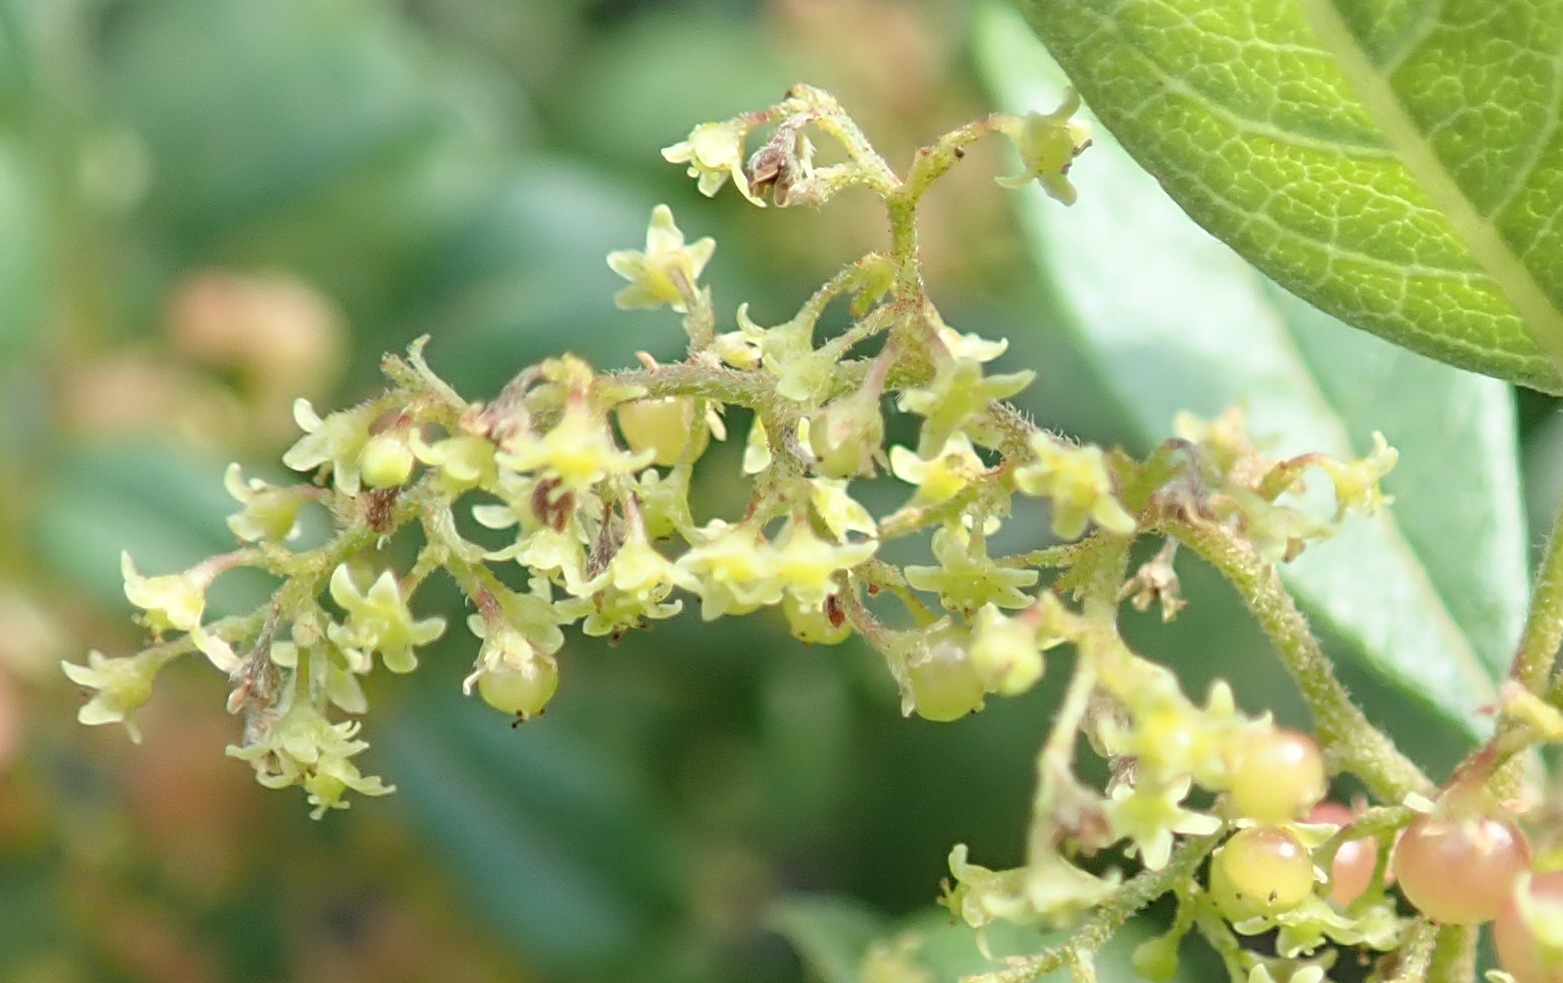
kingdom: Plantae
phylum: Tracheophyta
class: Magnoliopsida
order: Sapindales
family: Anacardiaceae
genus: Searsia
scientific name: Searsia pyroides
